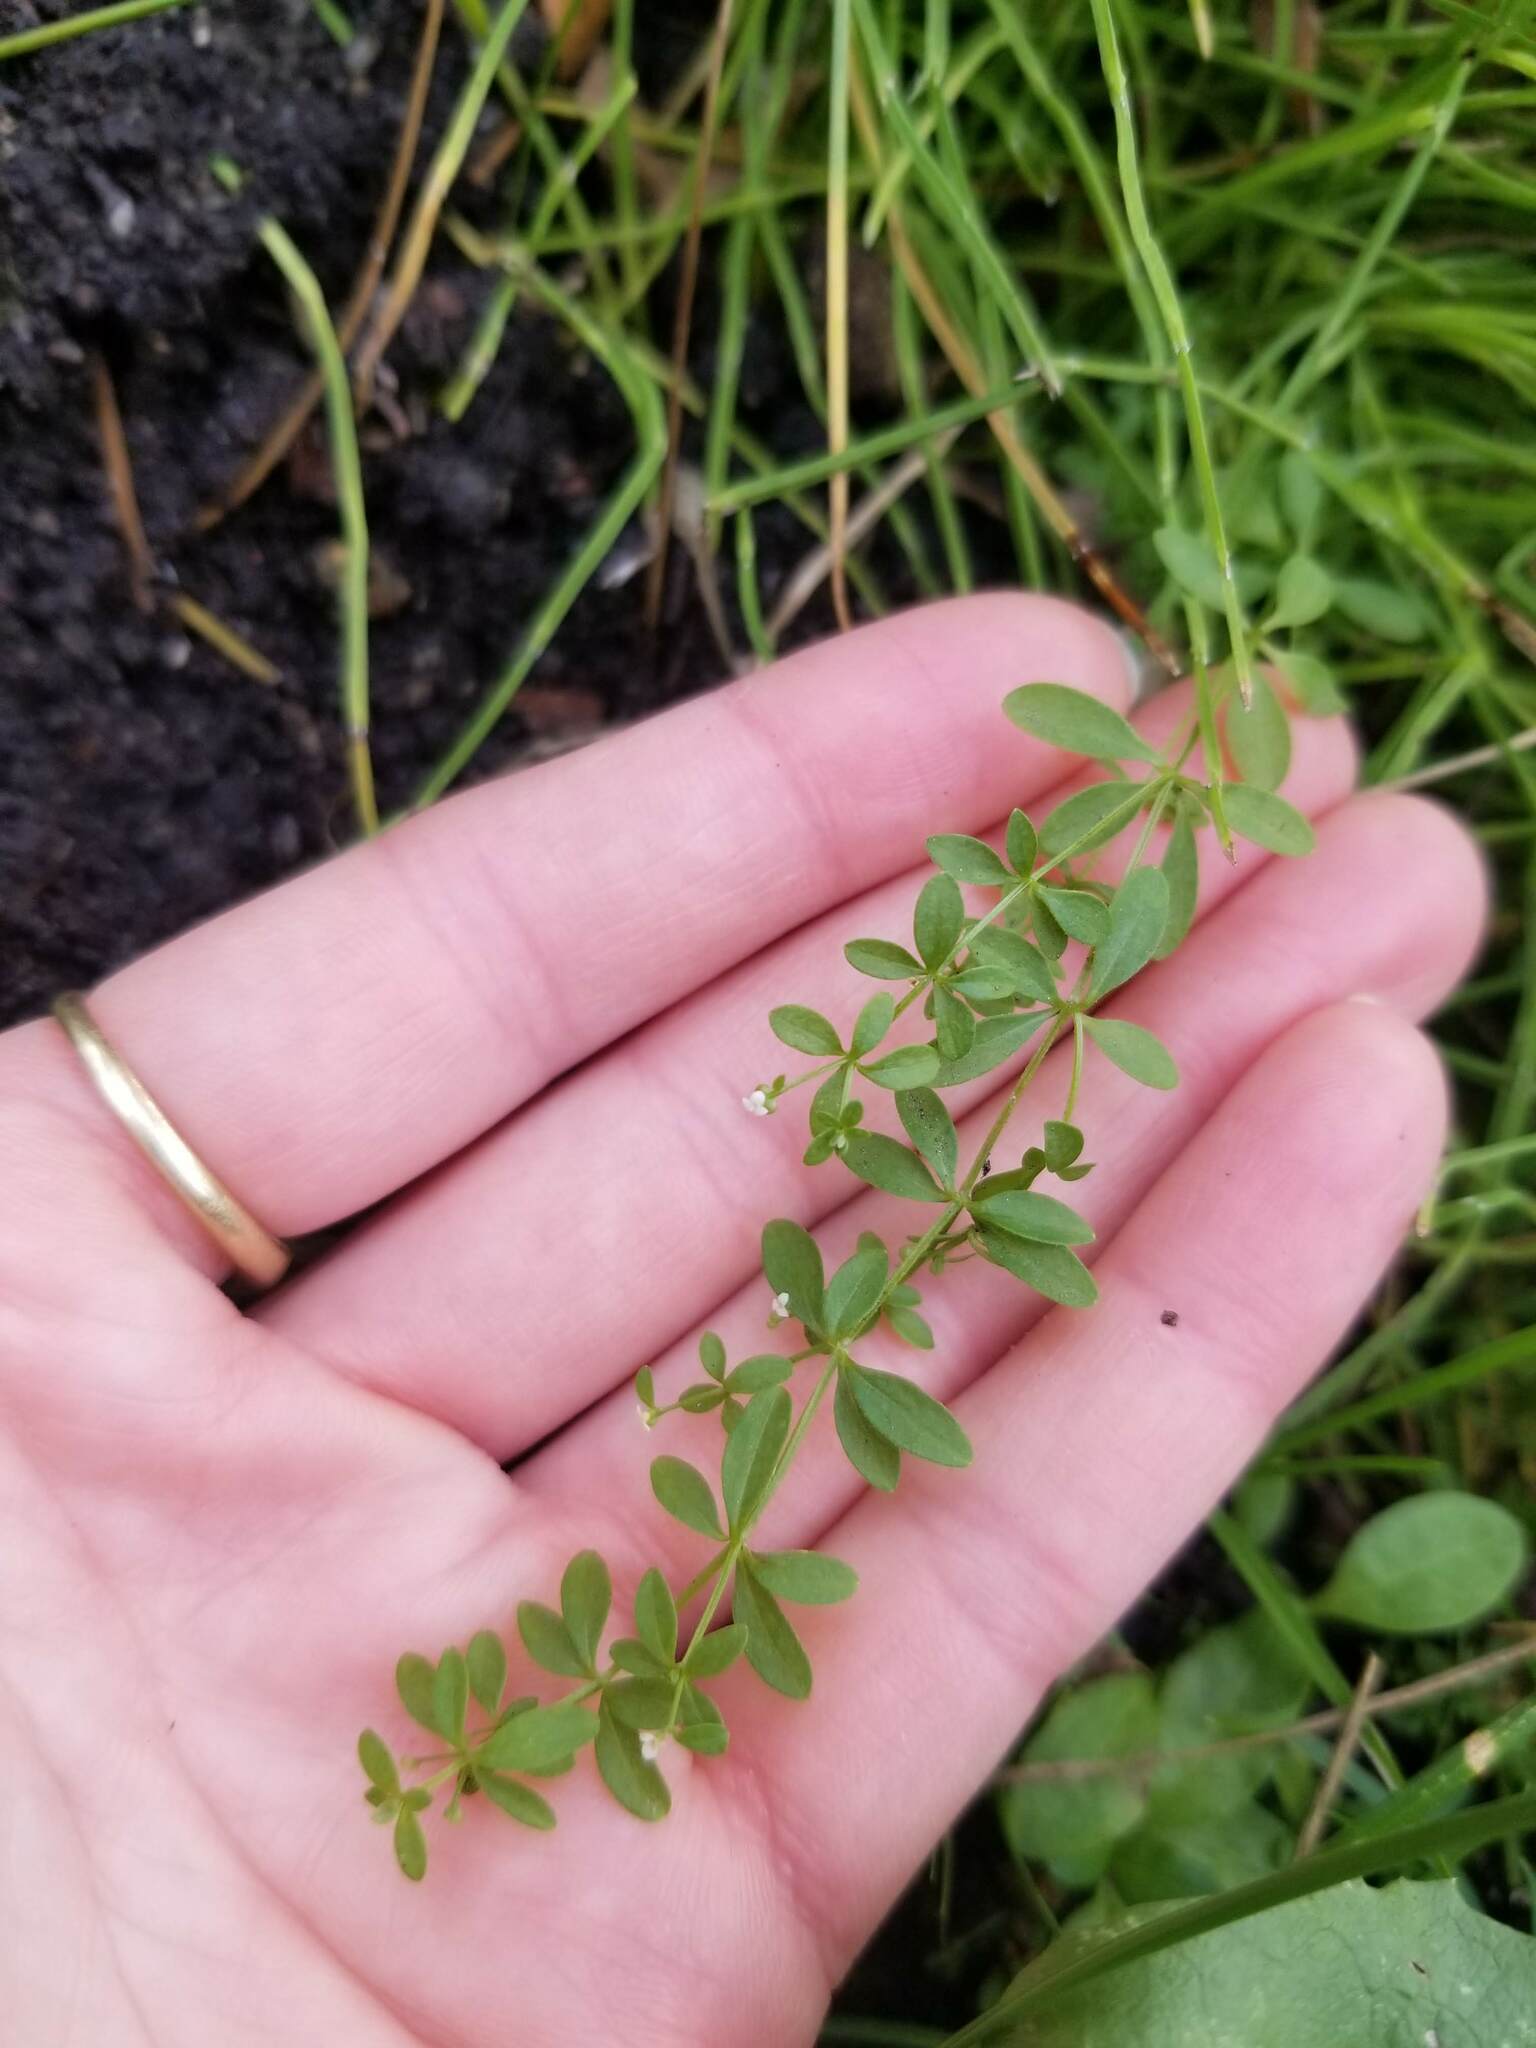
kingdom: Plantae
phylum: Tracheophyta
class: Magnoliopsida
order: Gentianales
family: Rubiaceae
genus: Galium
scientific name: Galium trifidum
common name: Small bedstraw
